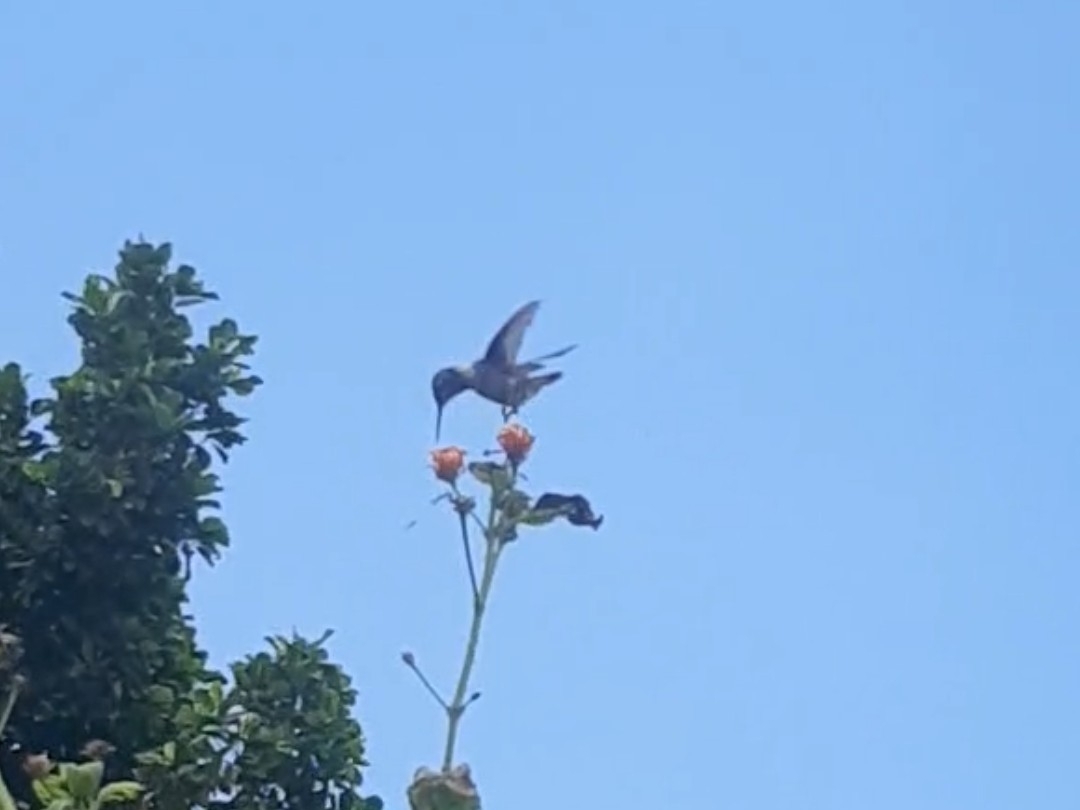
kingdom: Animalia
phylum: Chordata
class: Aves
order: Apodiformes
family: Trochilidae
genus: Calliphlox
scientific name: Calliphlox amethystina
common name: Amethyst woodstar
